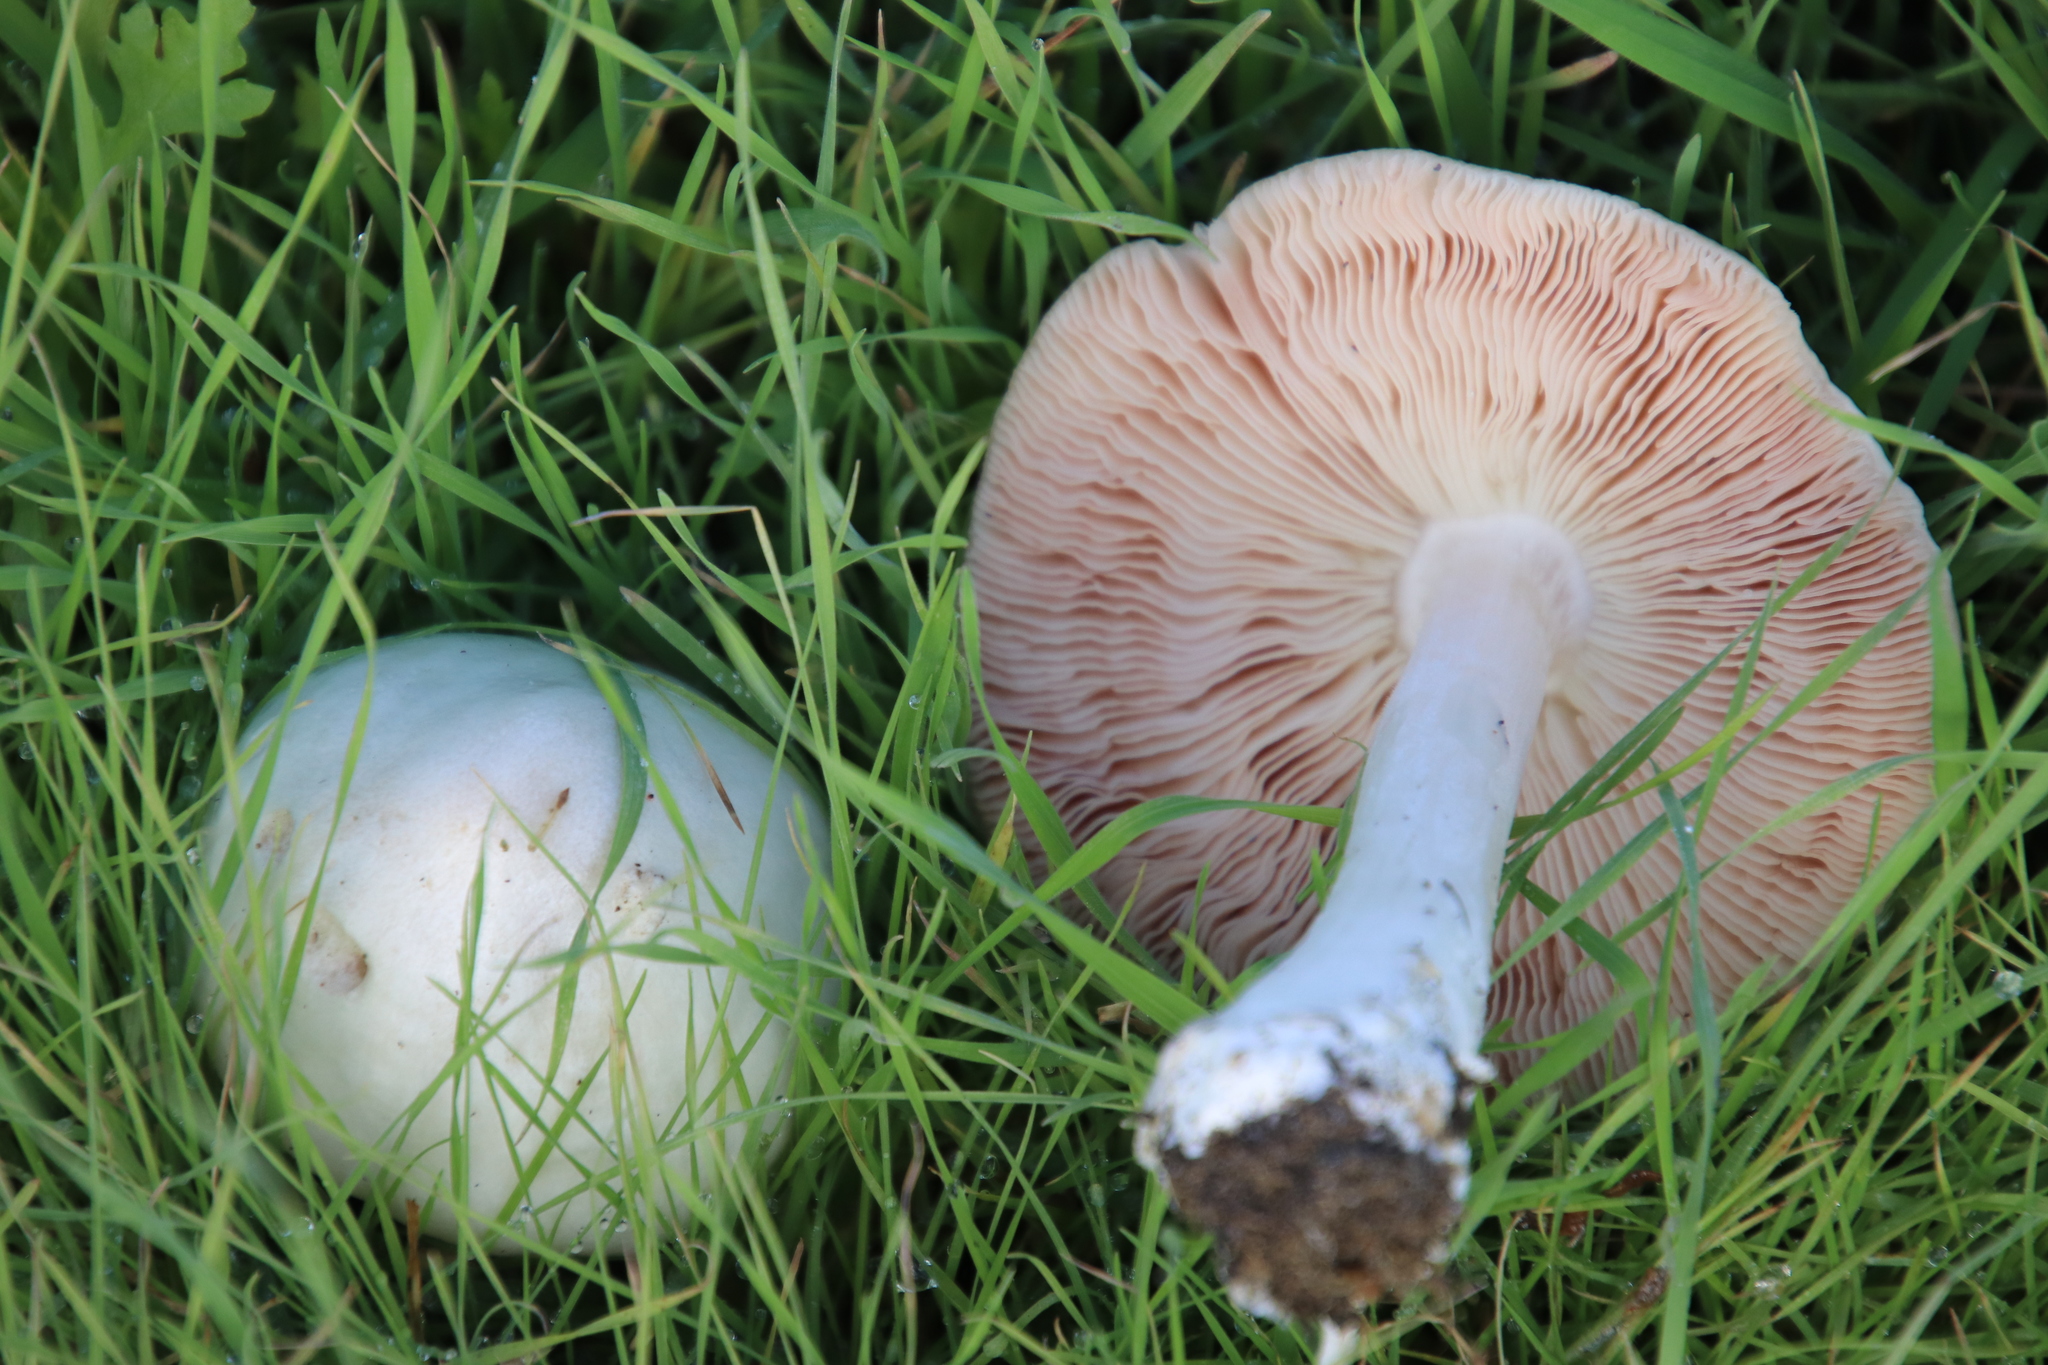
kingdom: Fungi
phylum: Basidiomycota
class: Agaricomycetes
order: Agaricales
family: Pluteaceae
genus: Volvopluteus
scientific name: Volvopluteus gloiocephalus
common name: Stubble rosegill
